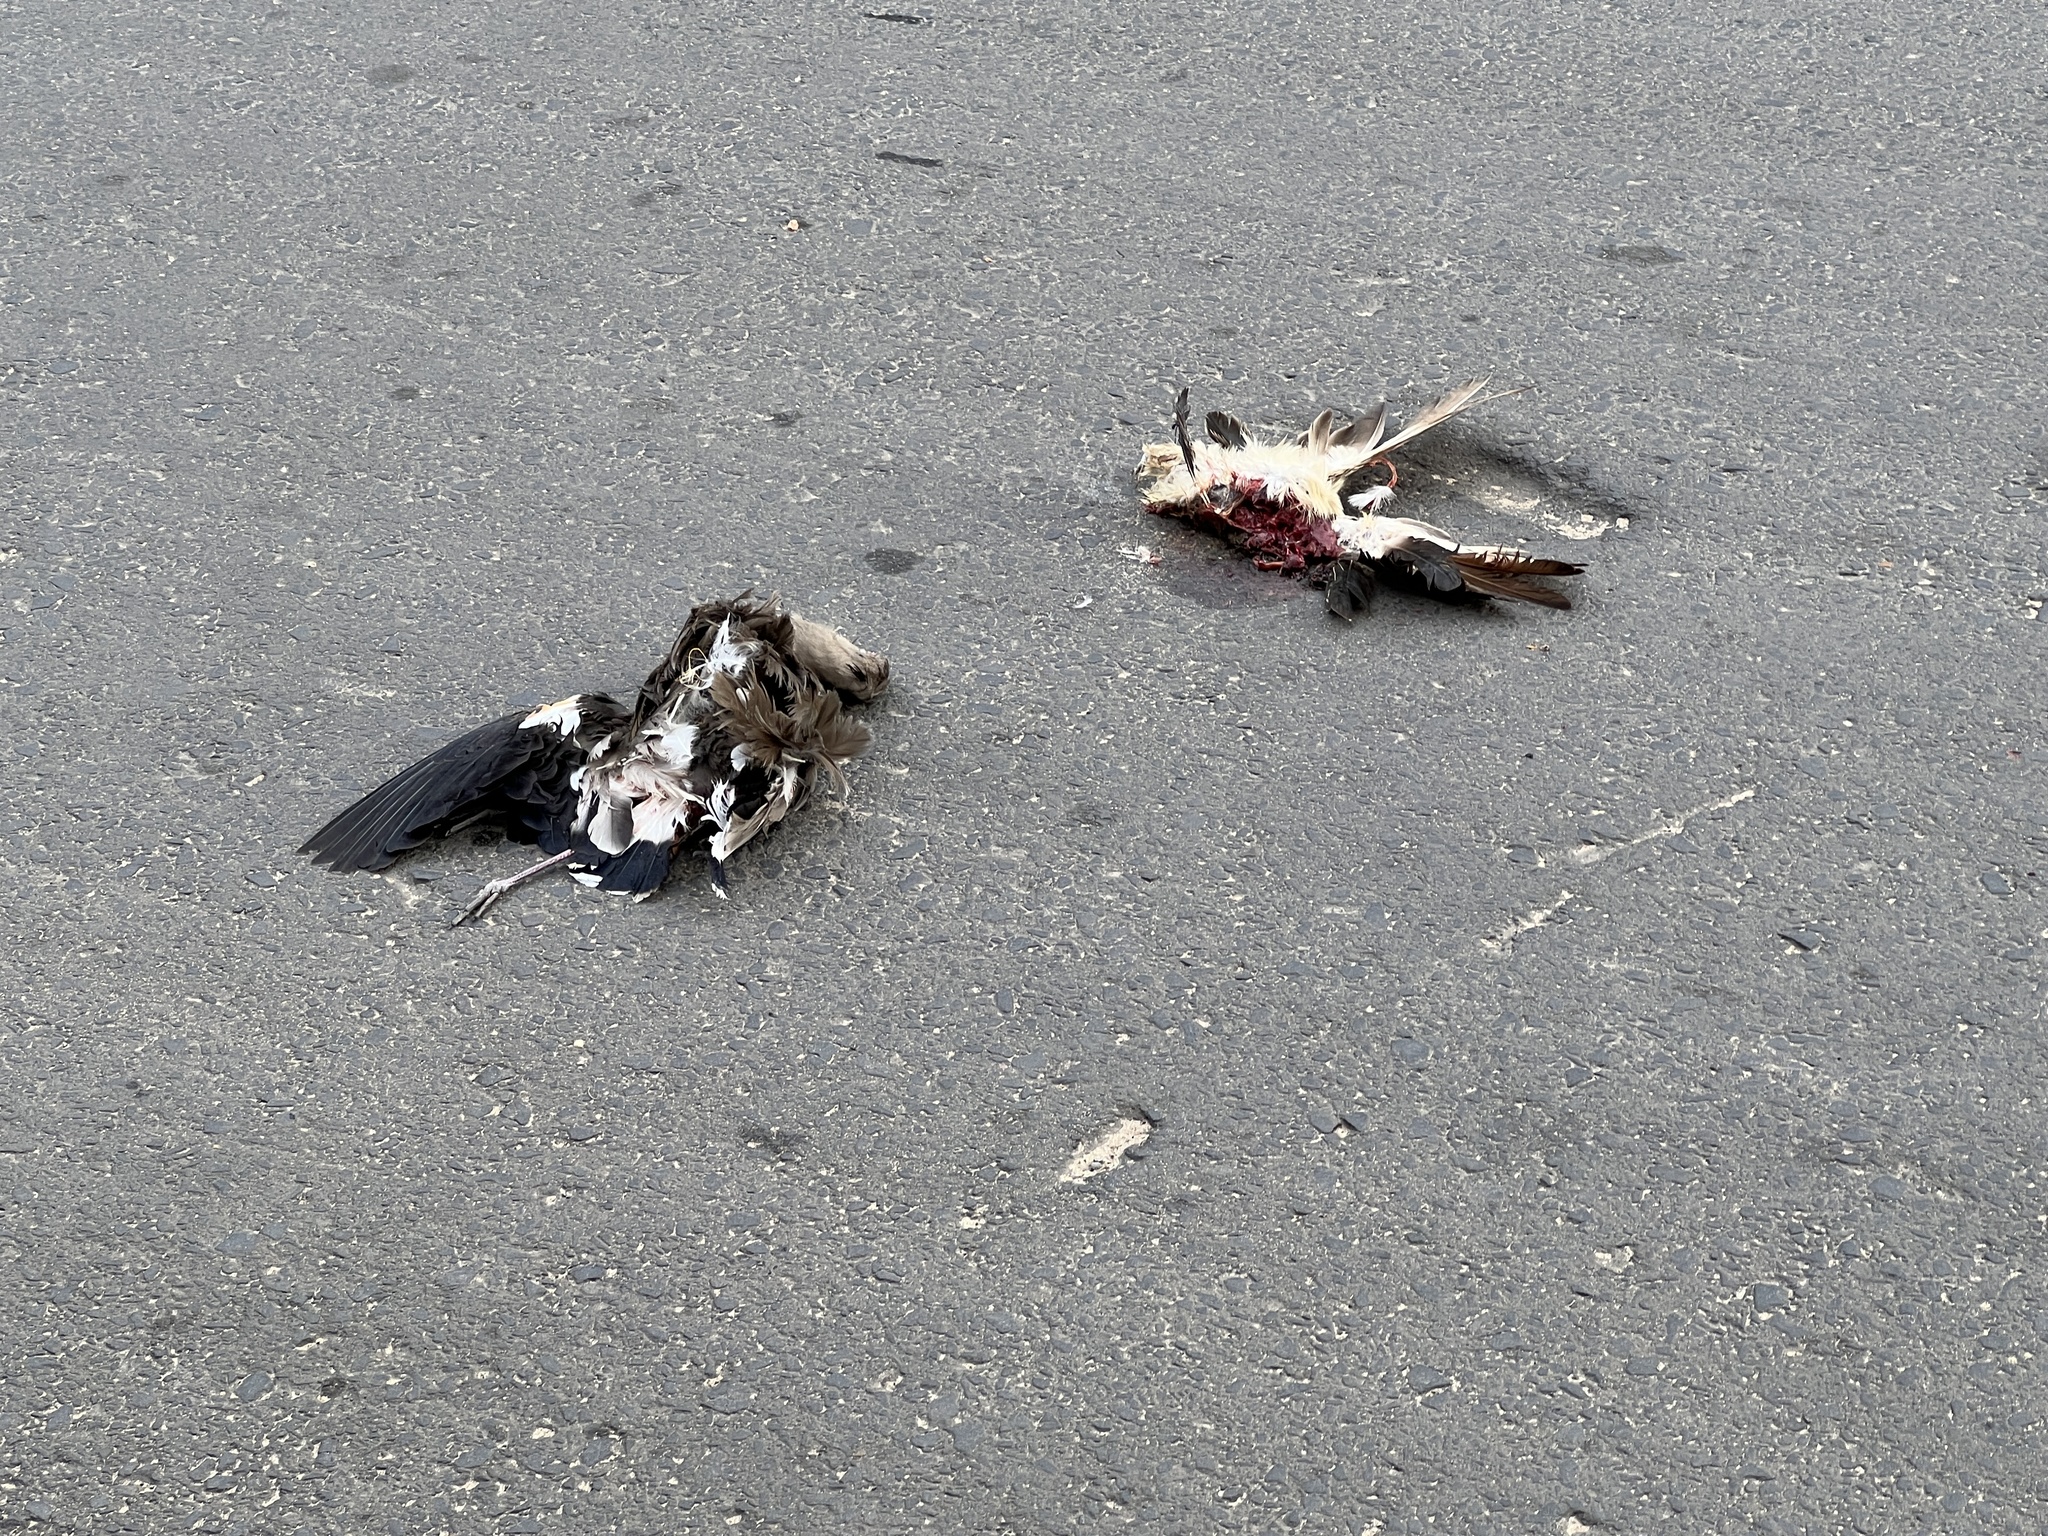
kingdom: Animalia
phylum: Chordata
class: Aves
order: Charadriiformes
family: Charadriidae
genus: Vanellus
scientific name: Vanellus chilensis
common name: Southern lapwing
